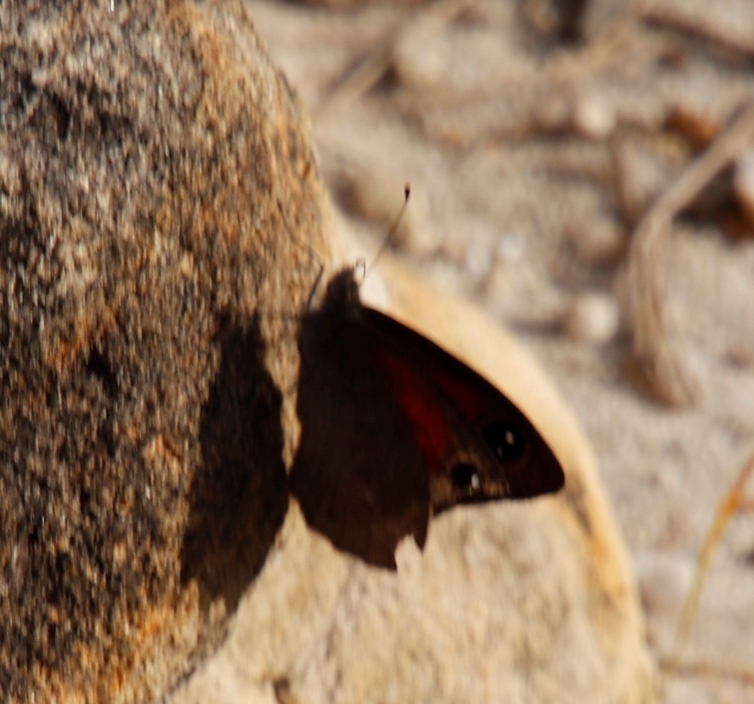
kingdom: Animalia
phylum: Arthropoda
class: Insecta
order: Lepidoptera
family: Nymphalidae
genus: Melanitis
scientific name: Melanitis leda
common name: Twilight brown
